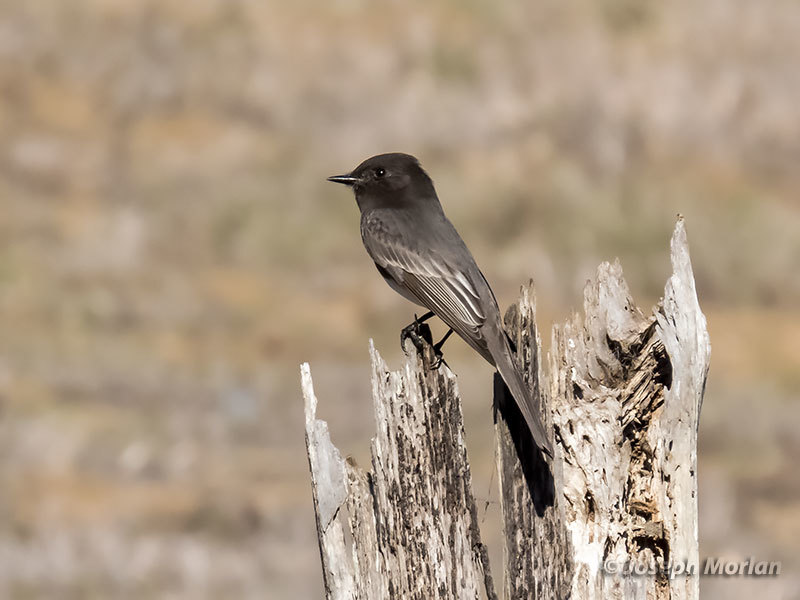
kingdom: Animalia
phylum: Chordata
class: Aves
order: Passeriformes
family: Tyrannidae
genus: Sayornis
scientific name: Sayornis nigricans
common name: Black phoebe
